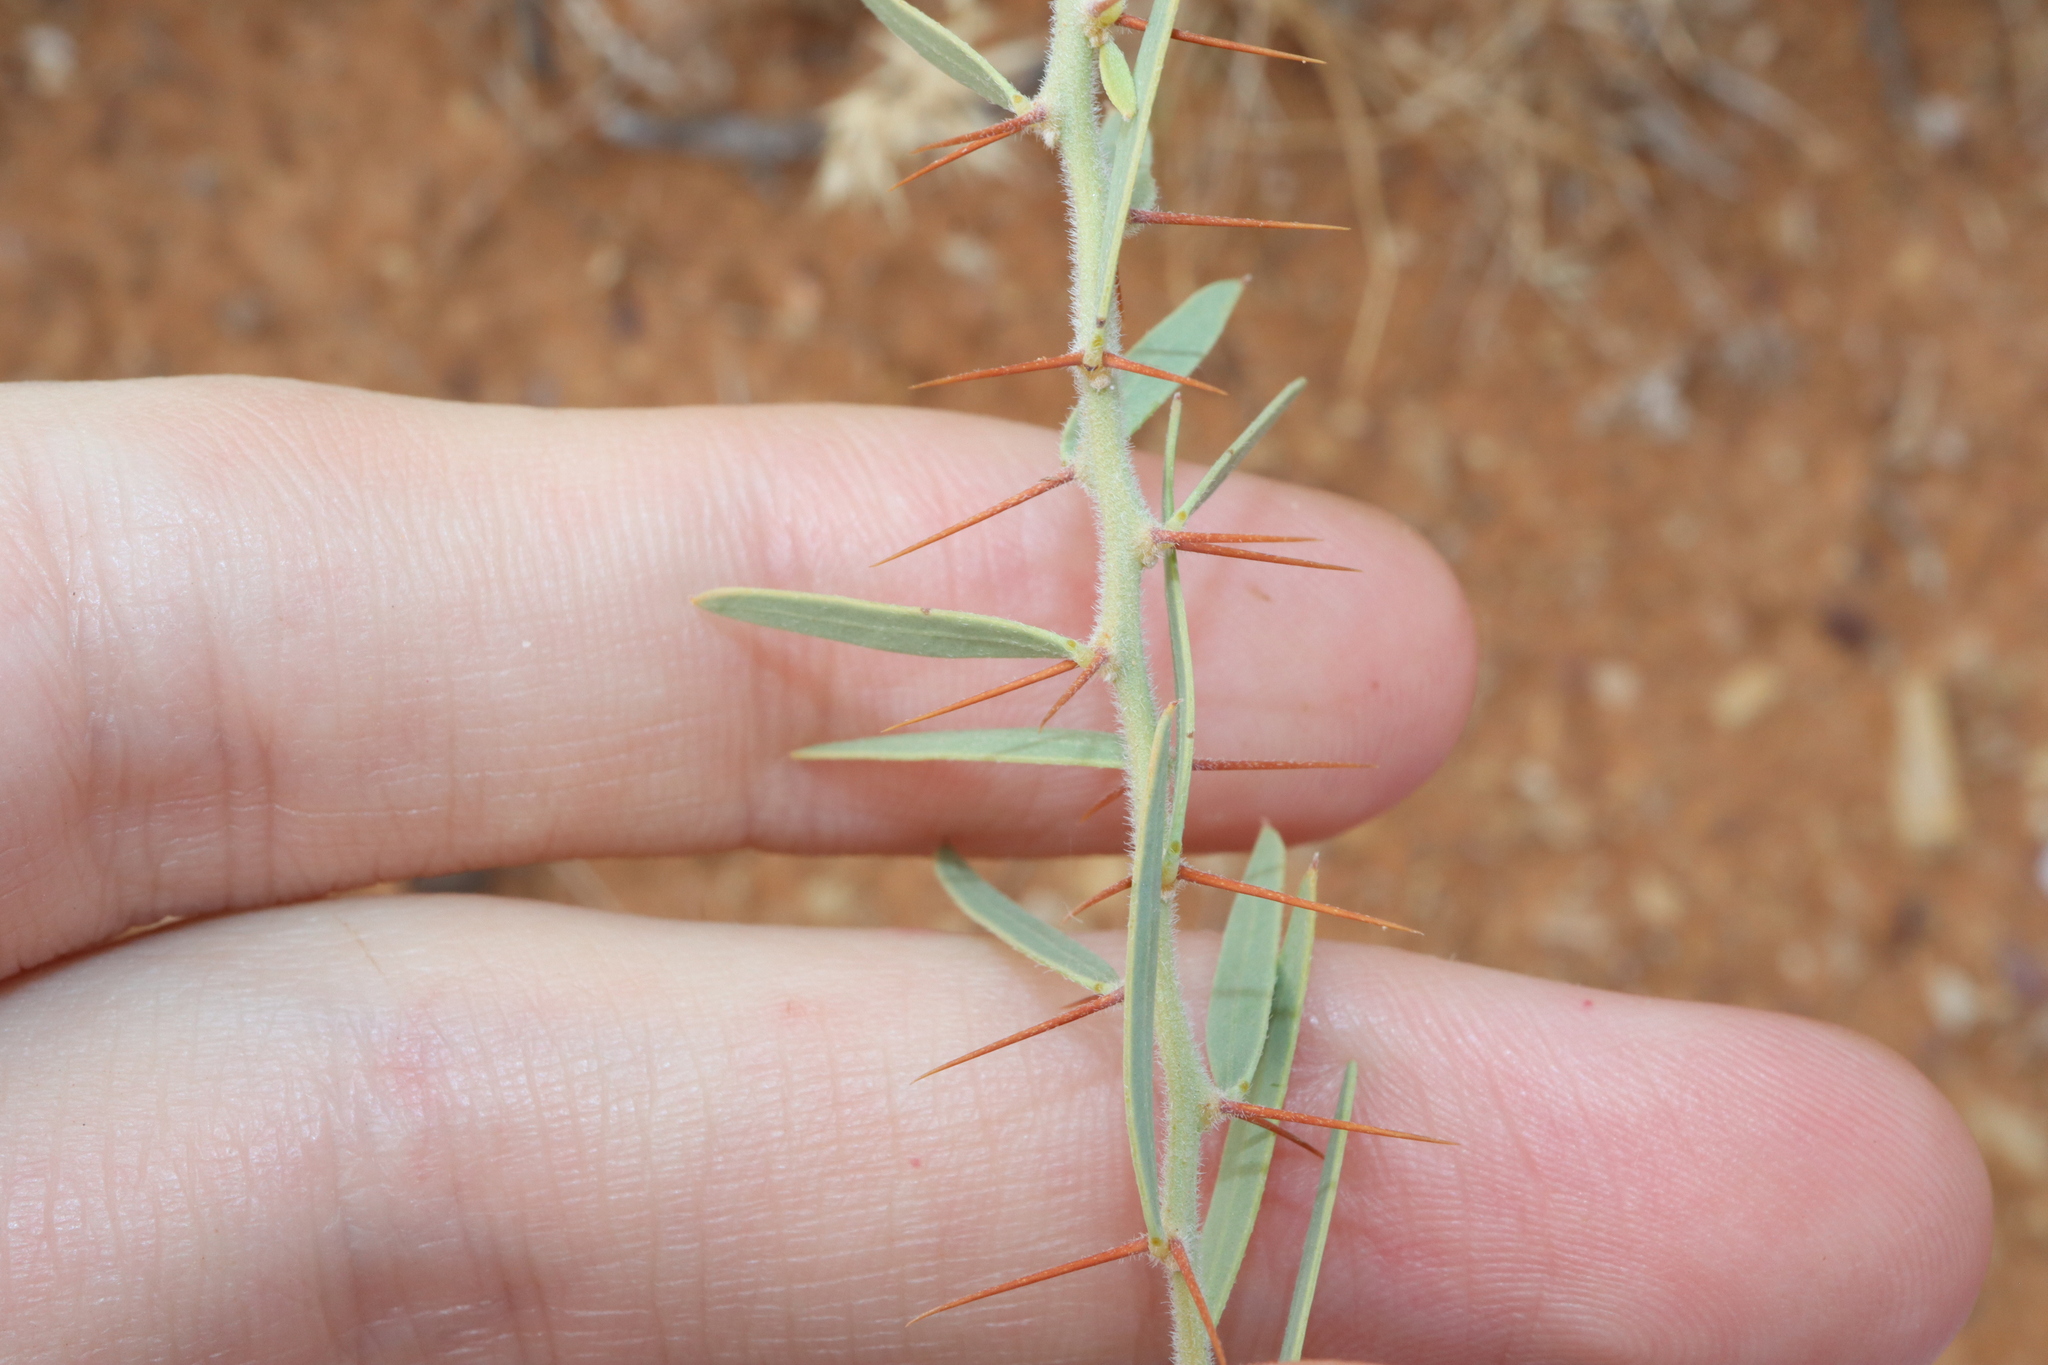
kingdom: Plantae
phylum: Tracheophyta
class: Magnoliopsida
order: Fabales
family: Fabaceae
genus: Acacia
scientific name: Acacia victoriae
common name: Bramble wattle
